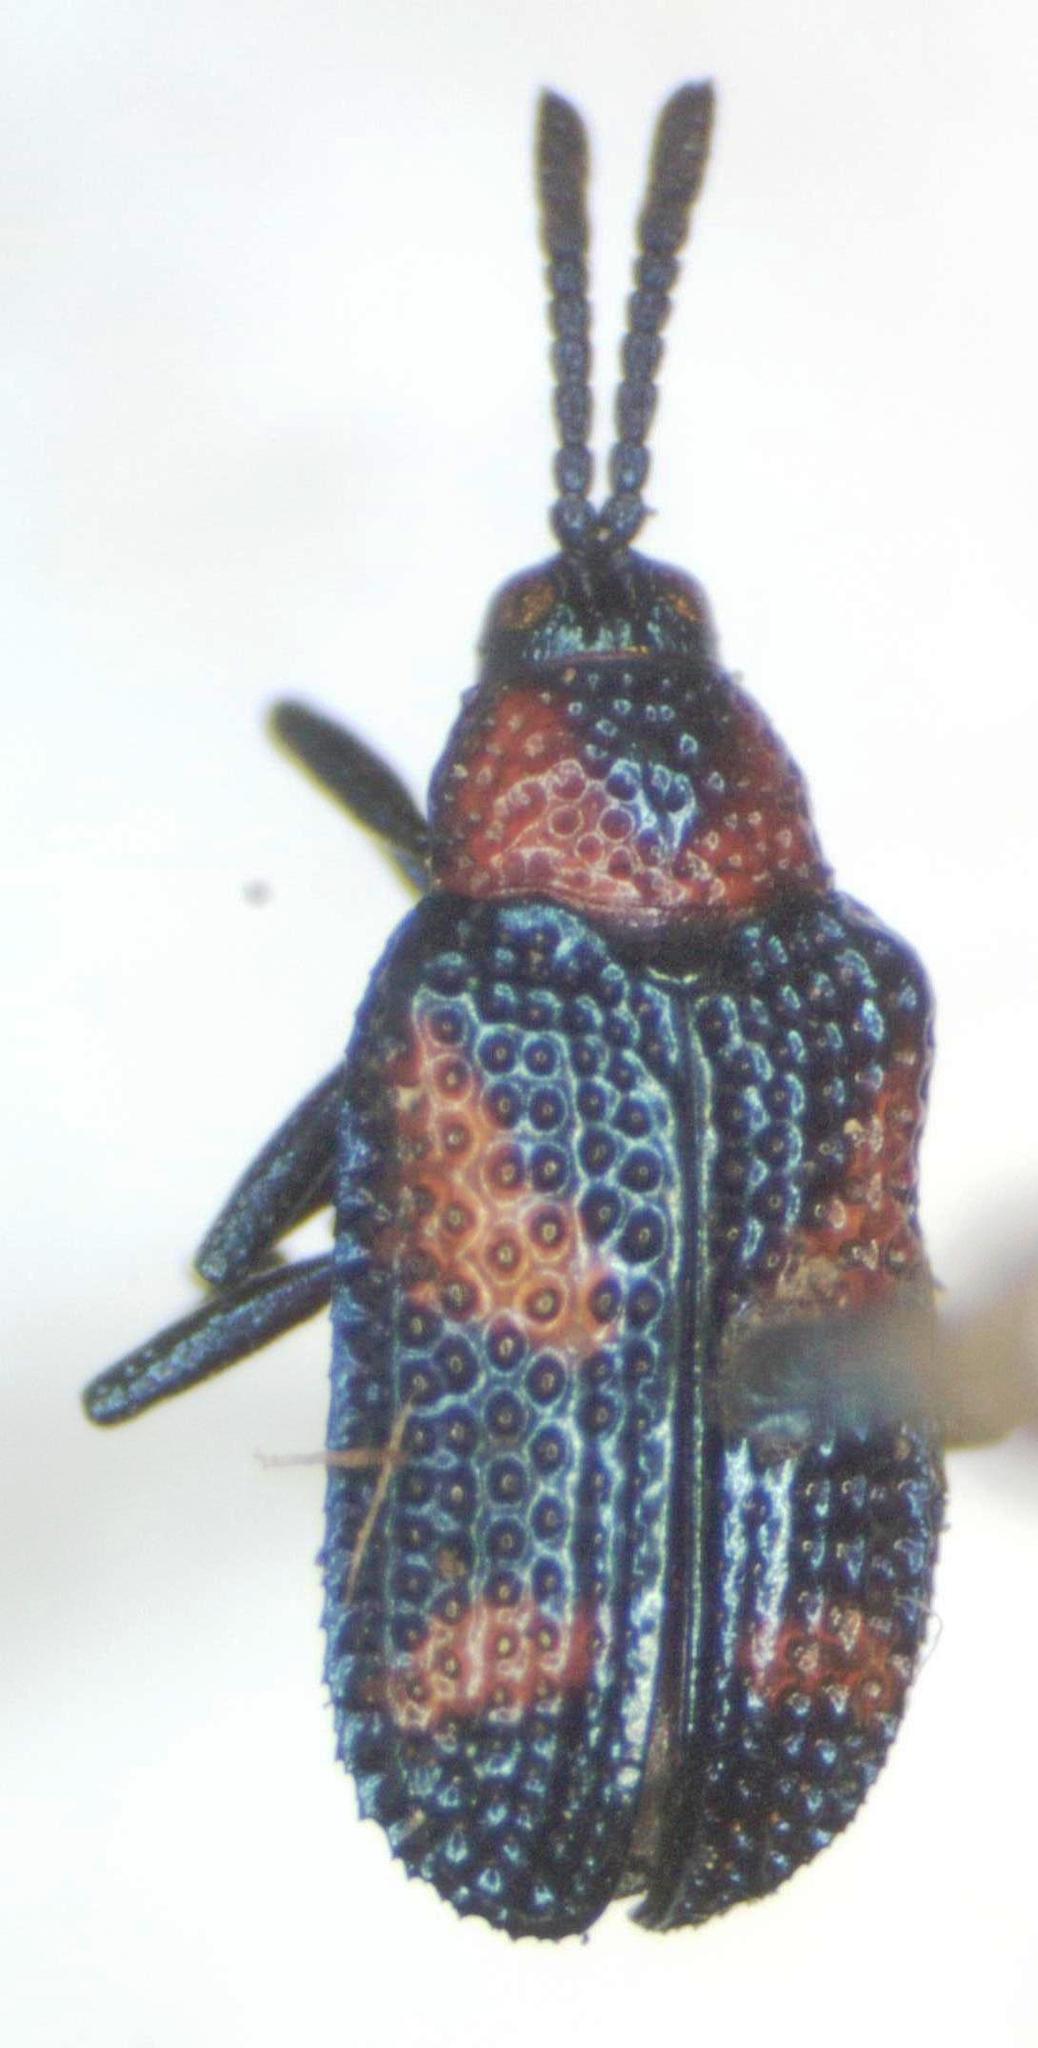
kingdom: Animalia
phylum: Arthropoda
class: Insecta
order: Coleoptera
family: Chrysomelidae
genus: Microrhopala
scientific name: Microrhopala perforata
